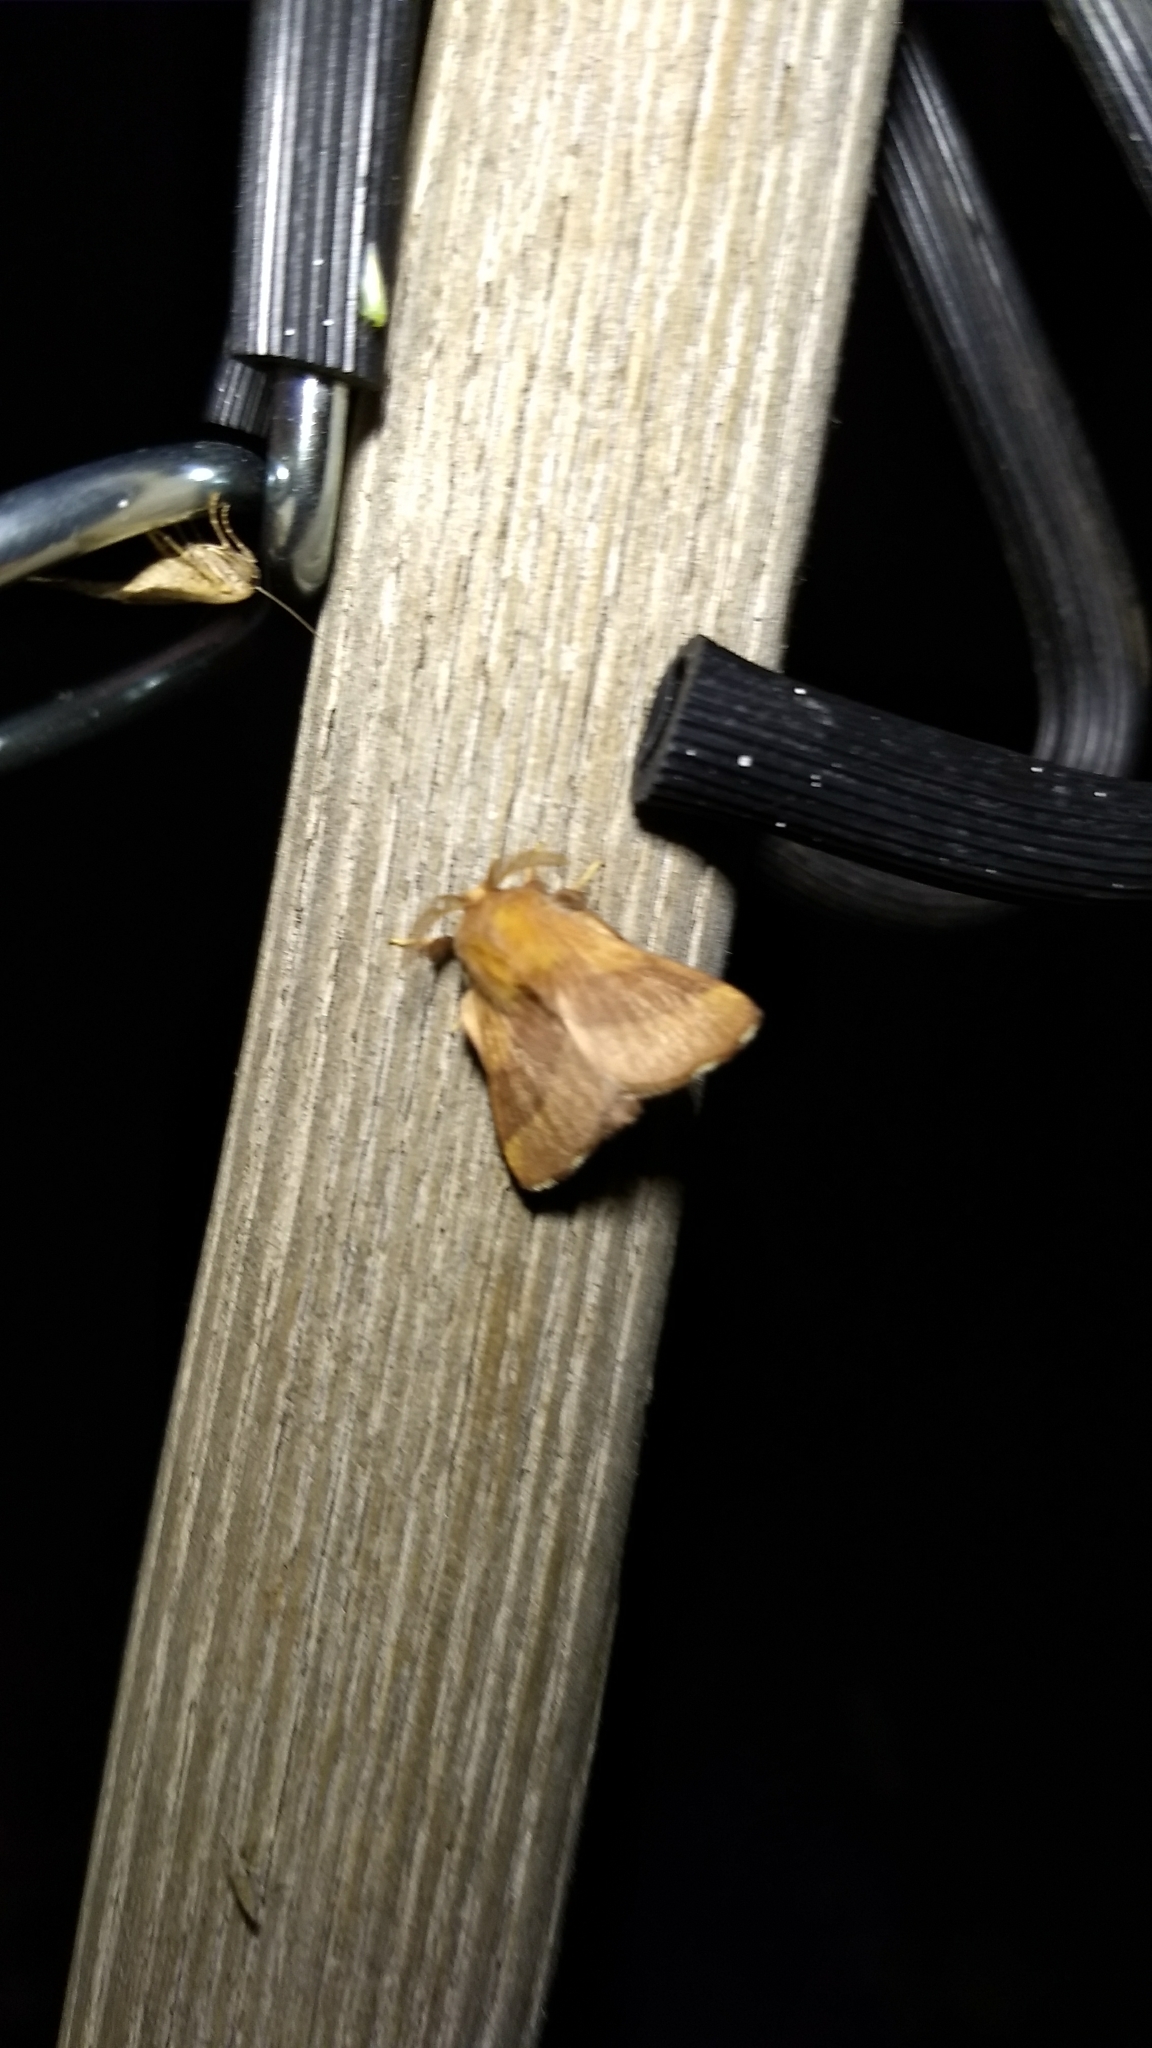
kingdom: Animalia
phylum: Arthropoda
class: Insecta
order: Lepidoptera
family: Lasiocampidae
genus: Malacosoma
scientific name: Malacosoma disstria
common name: Forest tent caterpillar
